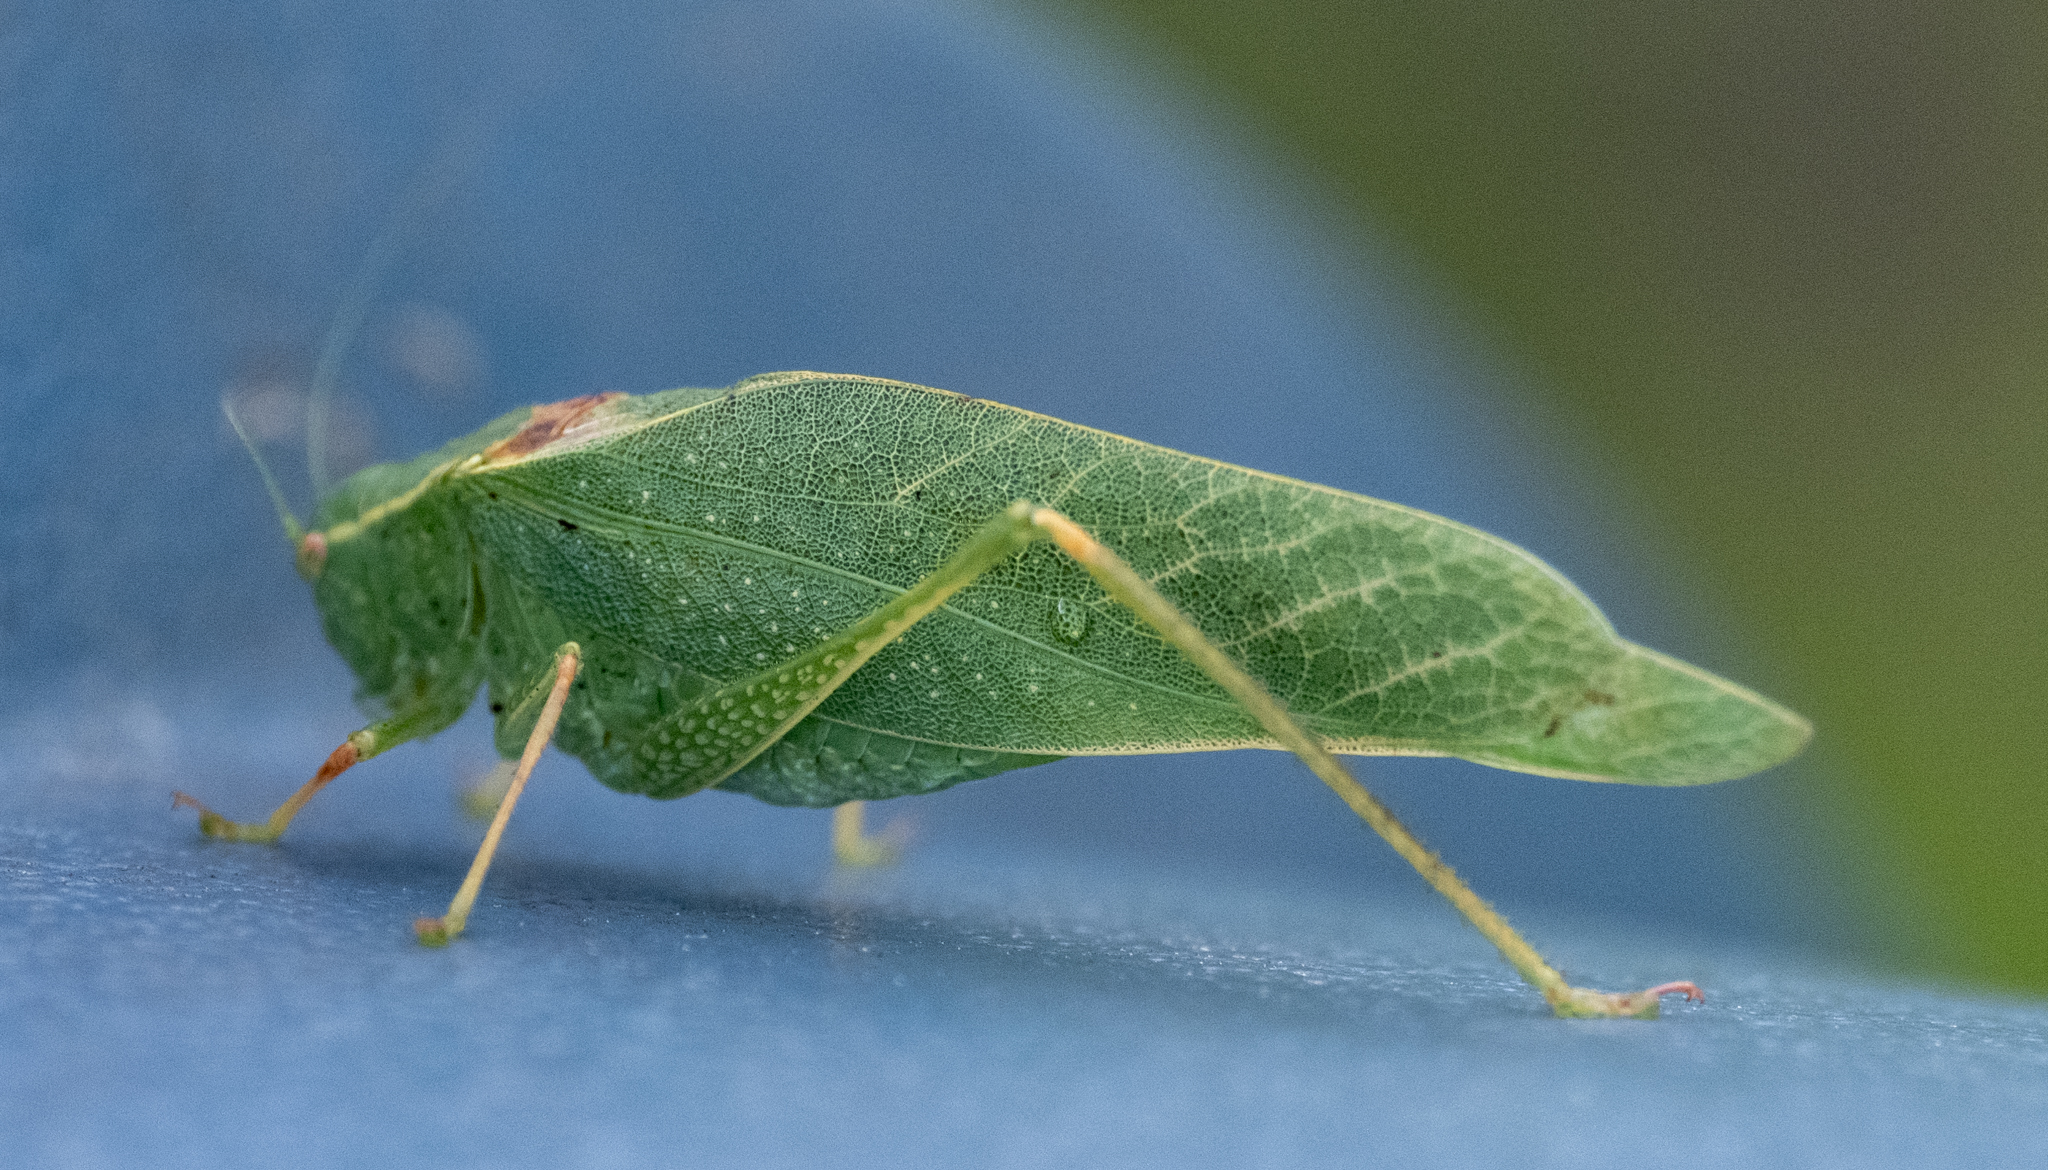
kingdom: Animalia
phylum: Arthropoda
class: Insecta
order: Orthoptera
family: Tettigoniidae
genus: Microcentrum
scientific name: Microcentrum californicum
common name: California angle-wing
